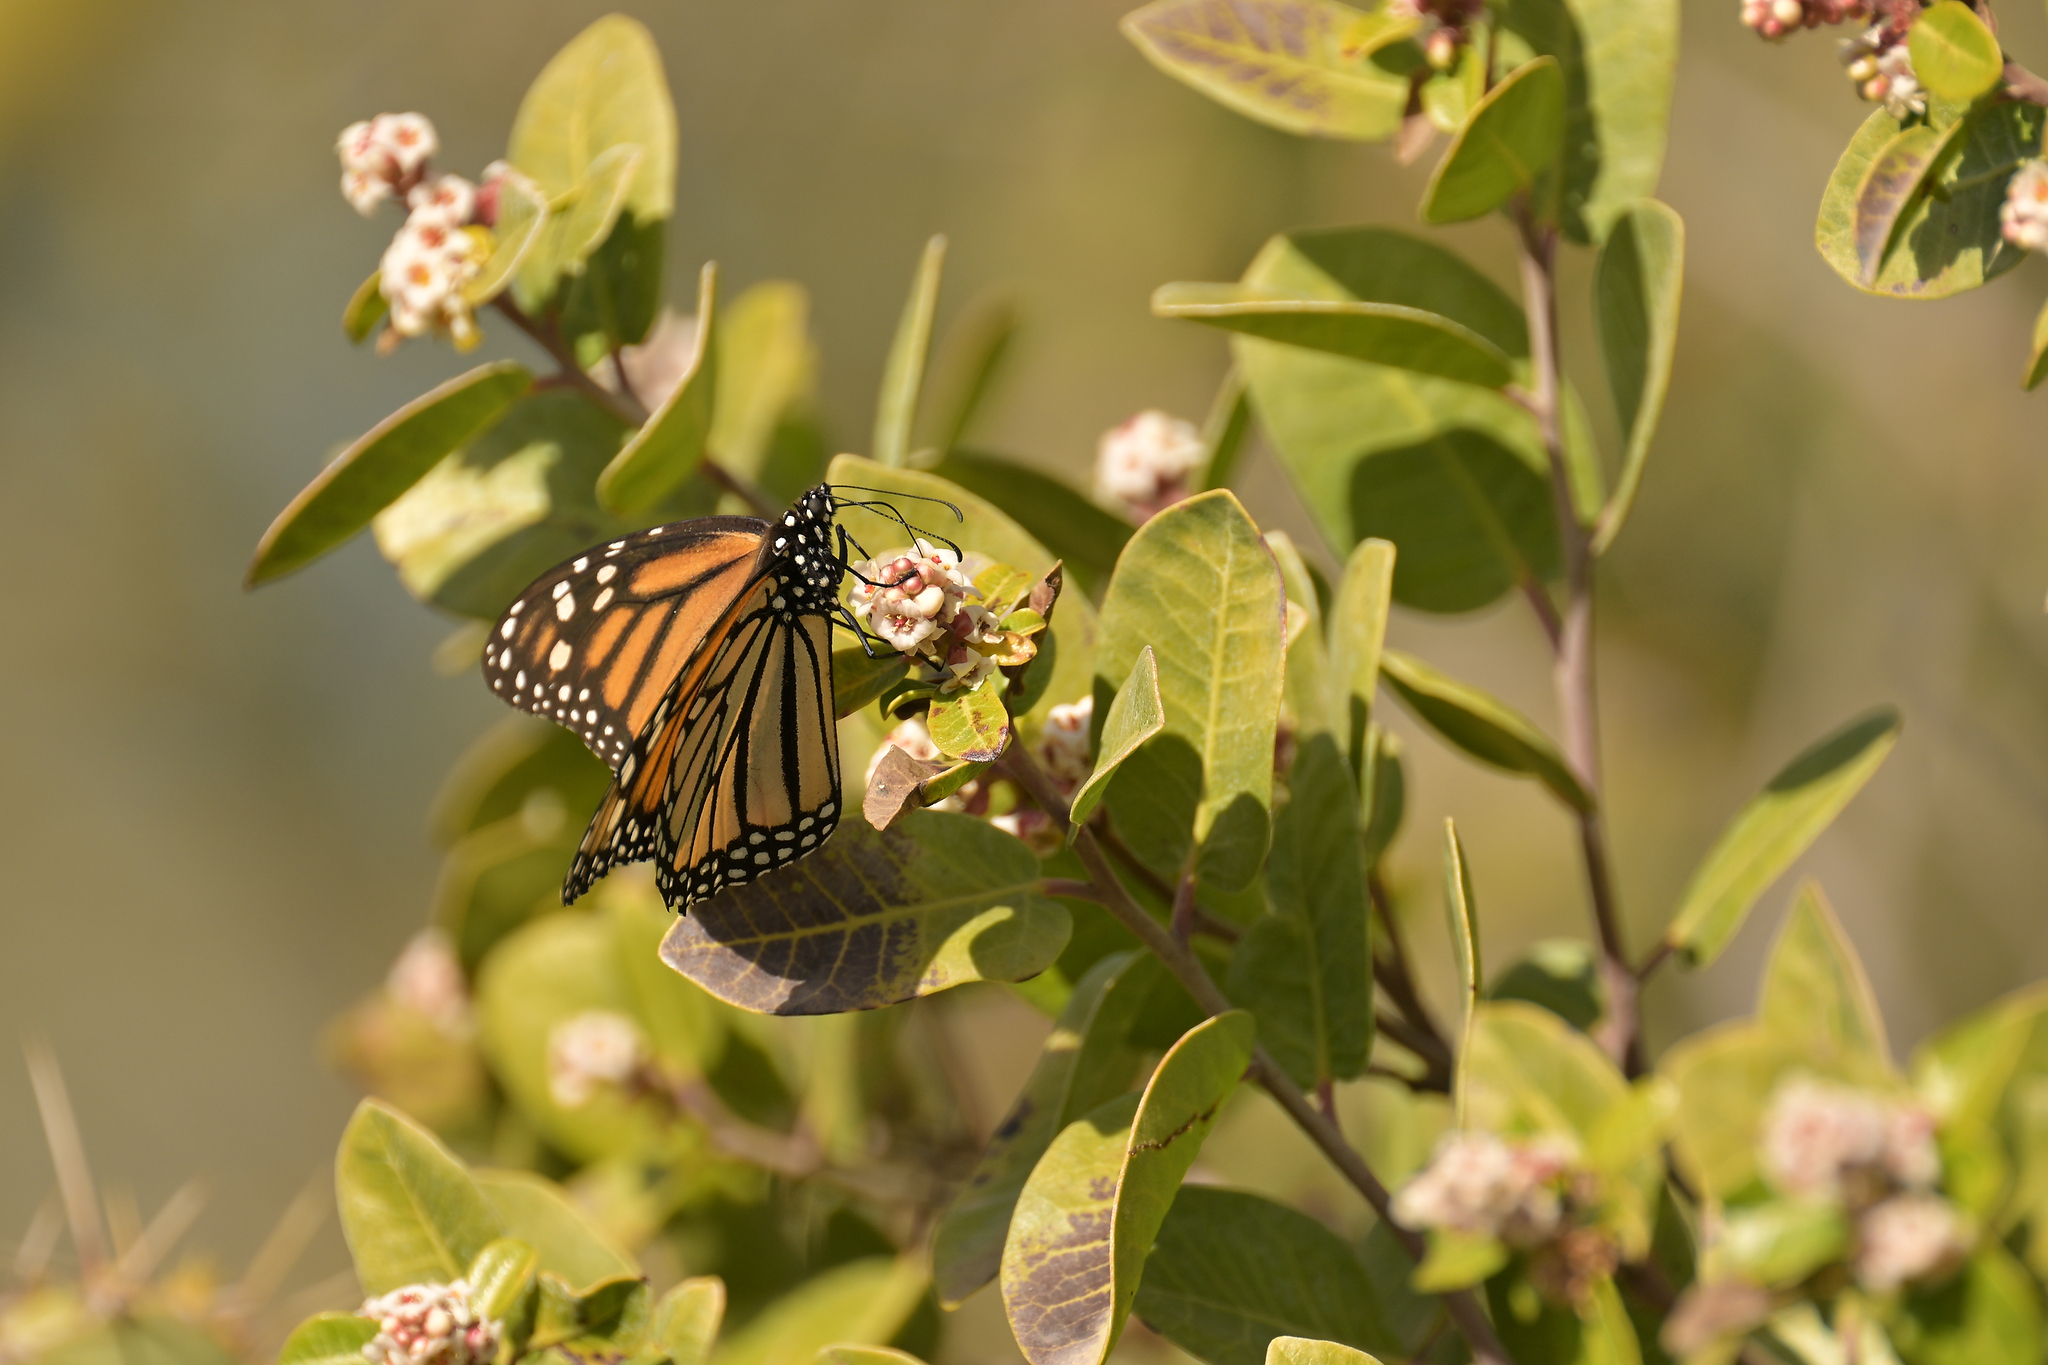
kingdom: Animalia
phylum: Arthropoda
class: Insecta
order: Lepidoptera
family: Nymphalidae
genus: Danaus
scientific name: Danaus plexippus
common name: Monarch
